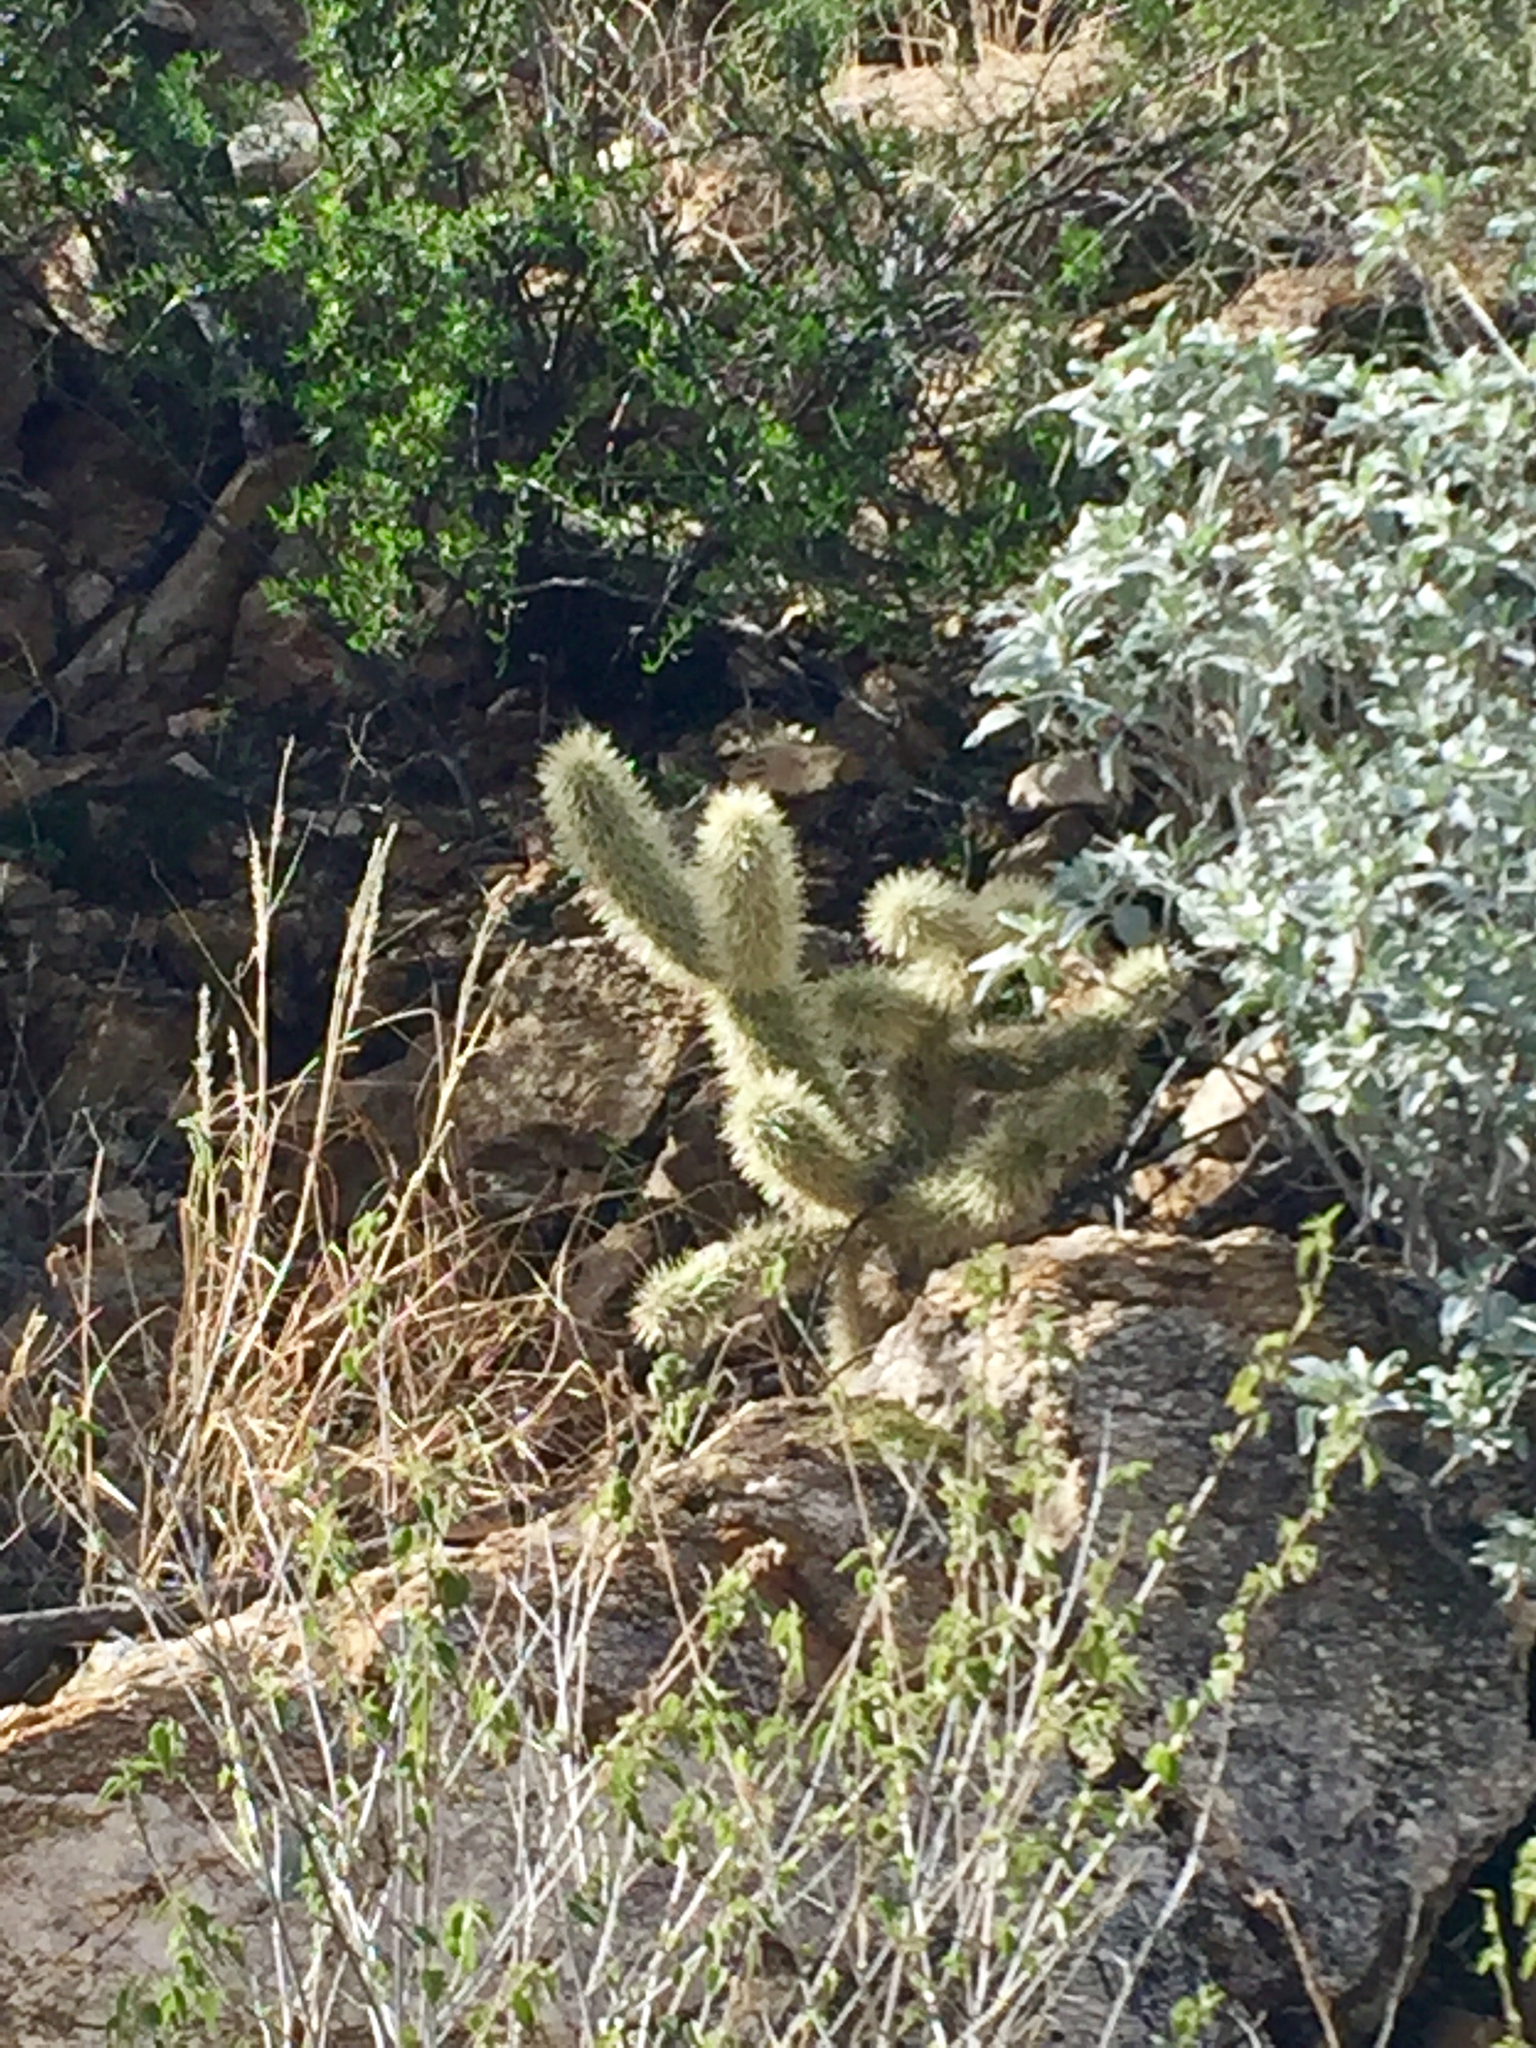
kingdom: Plantae
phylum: Tracheophyta
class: Magnoliopsida
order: Caryophyllales
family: Cactaceae
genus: Cylindropuntia
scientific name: Cylindropuntia fosbergii
